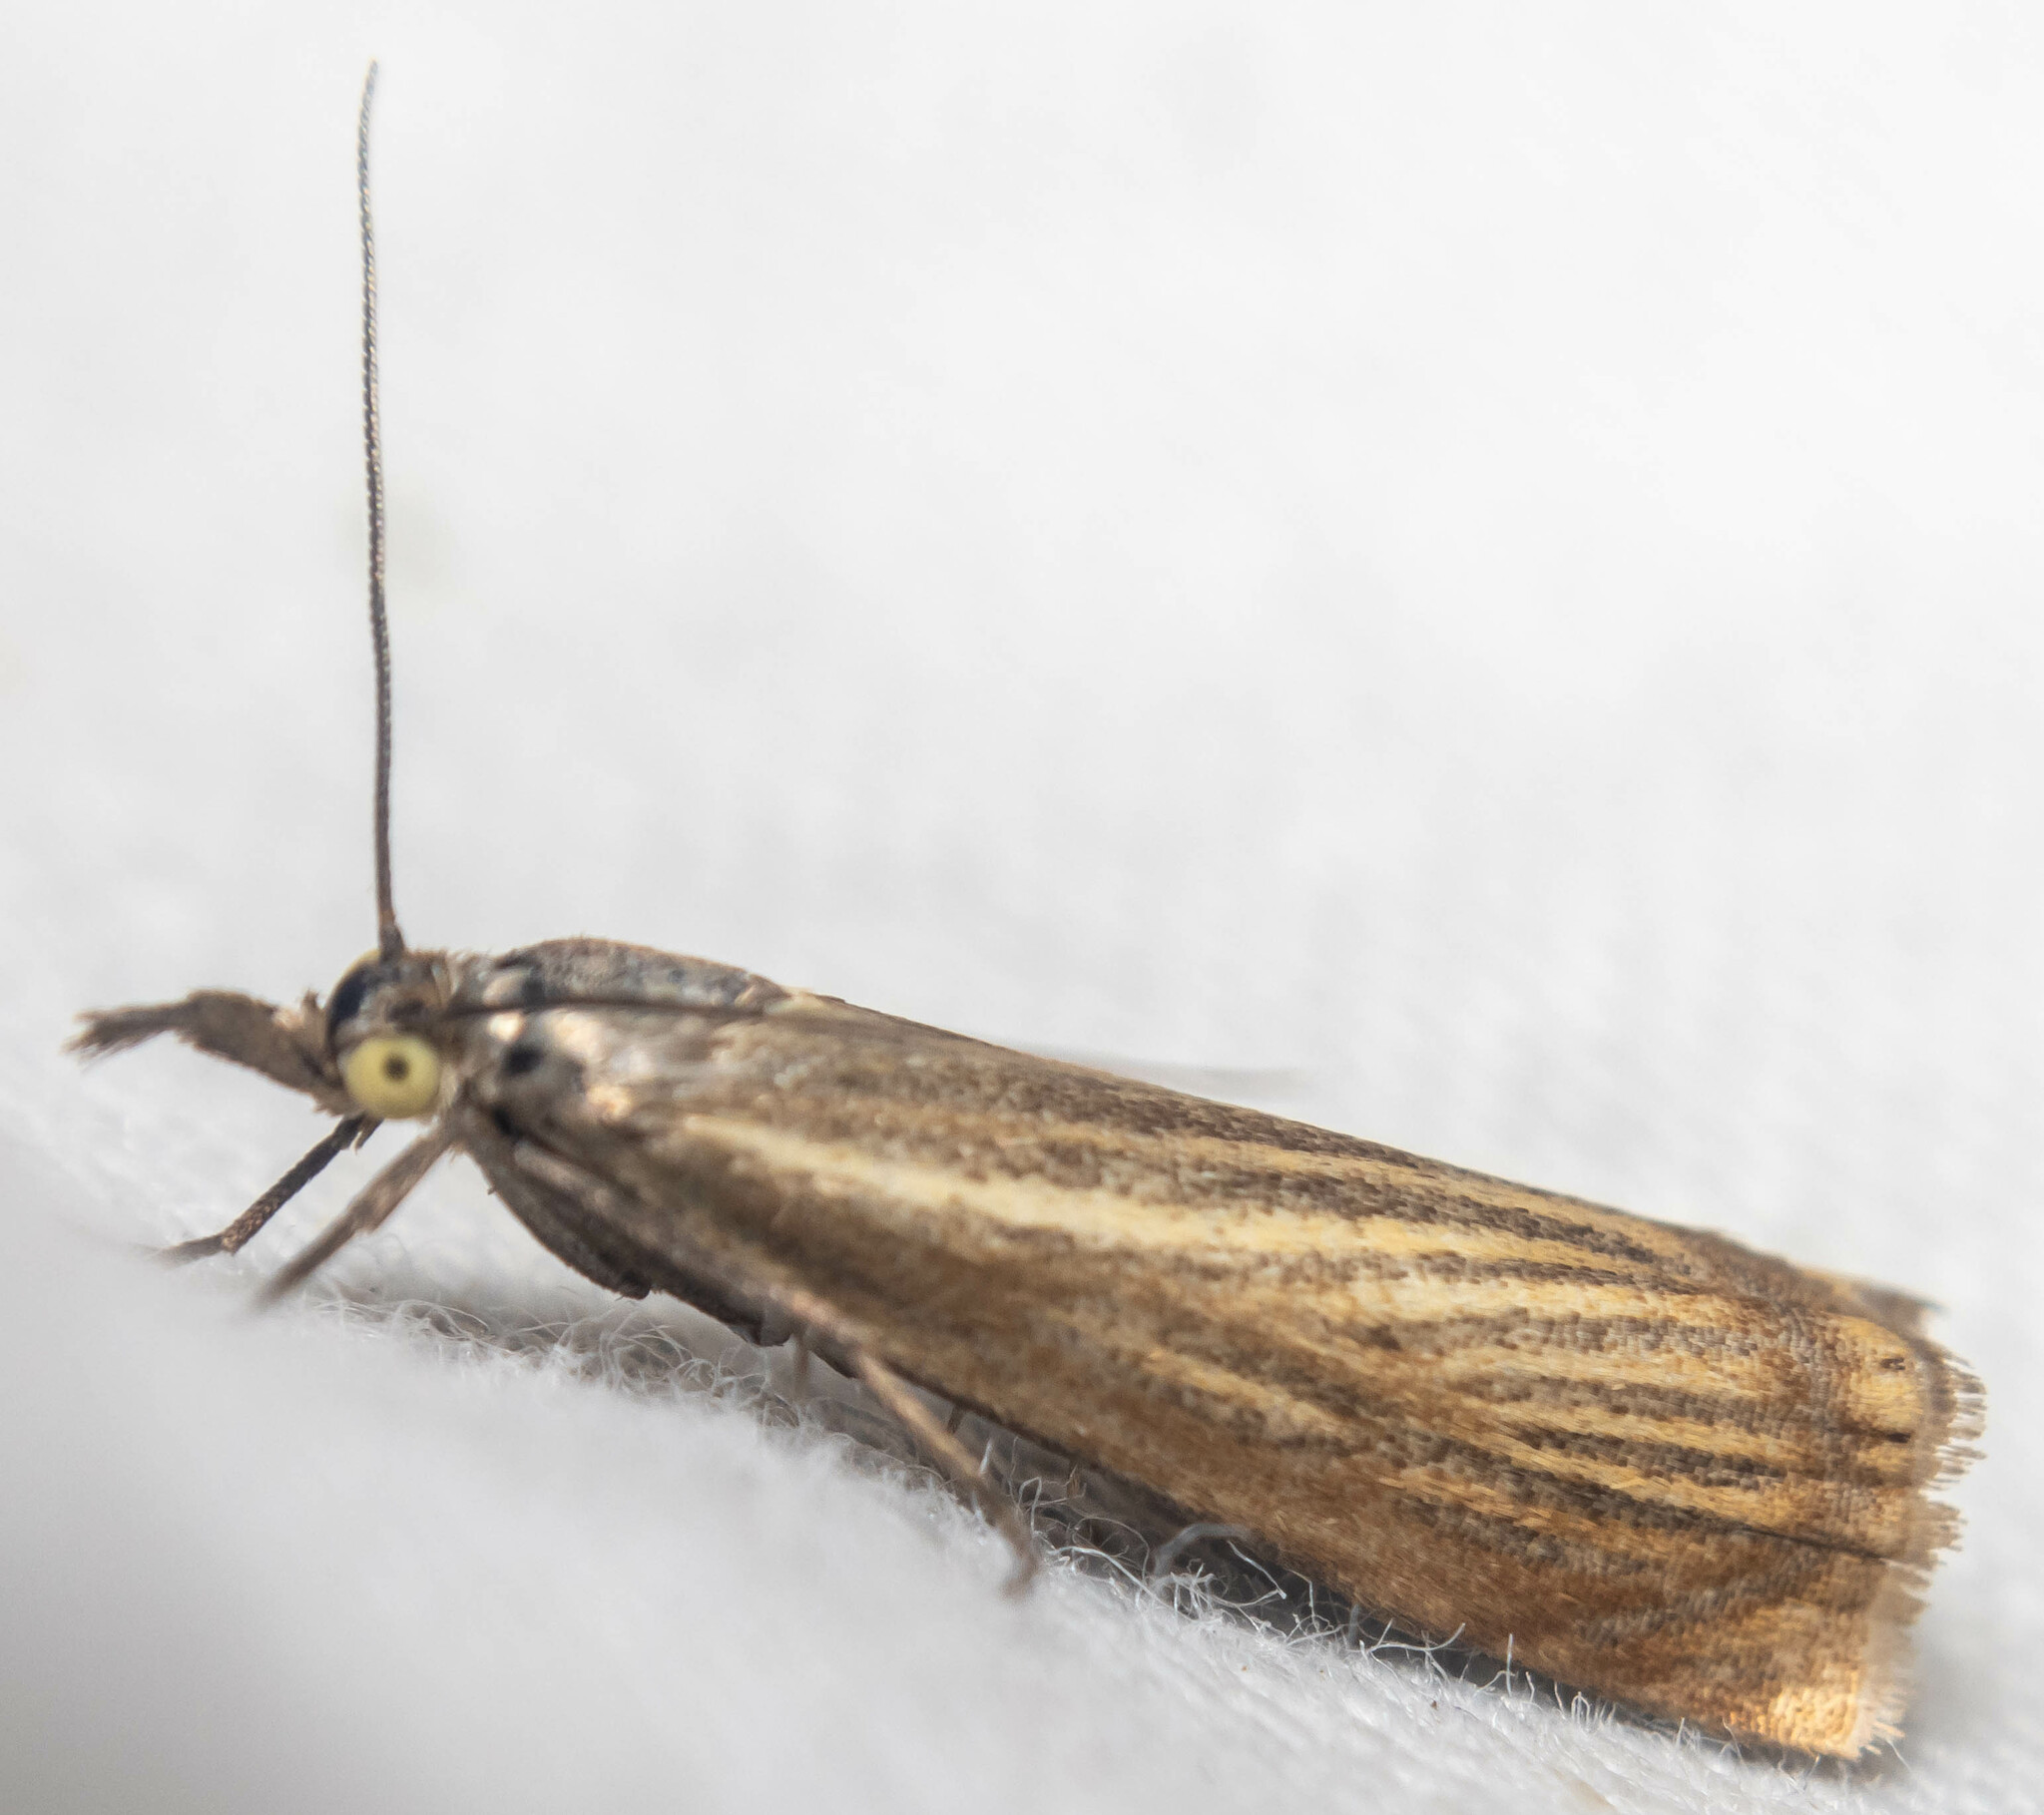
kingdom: Animalia
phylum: Arthropoda
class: Insecta
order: Lepidoptera
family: Crambidae
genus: Chrysoteuchia
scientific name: Chrysoteuchia culmella
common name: Garden grass-veneer
